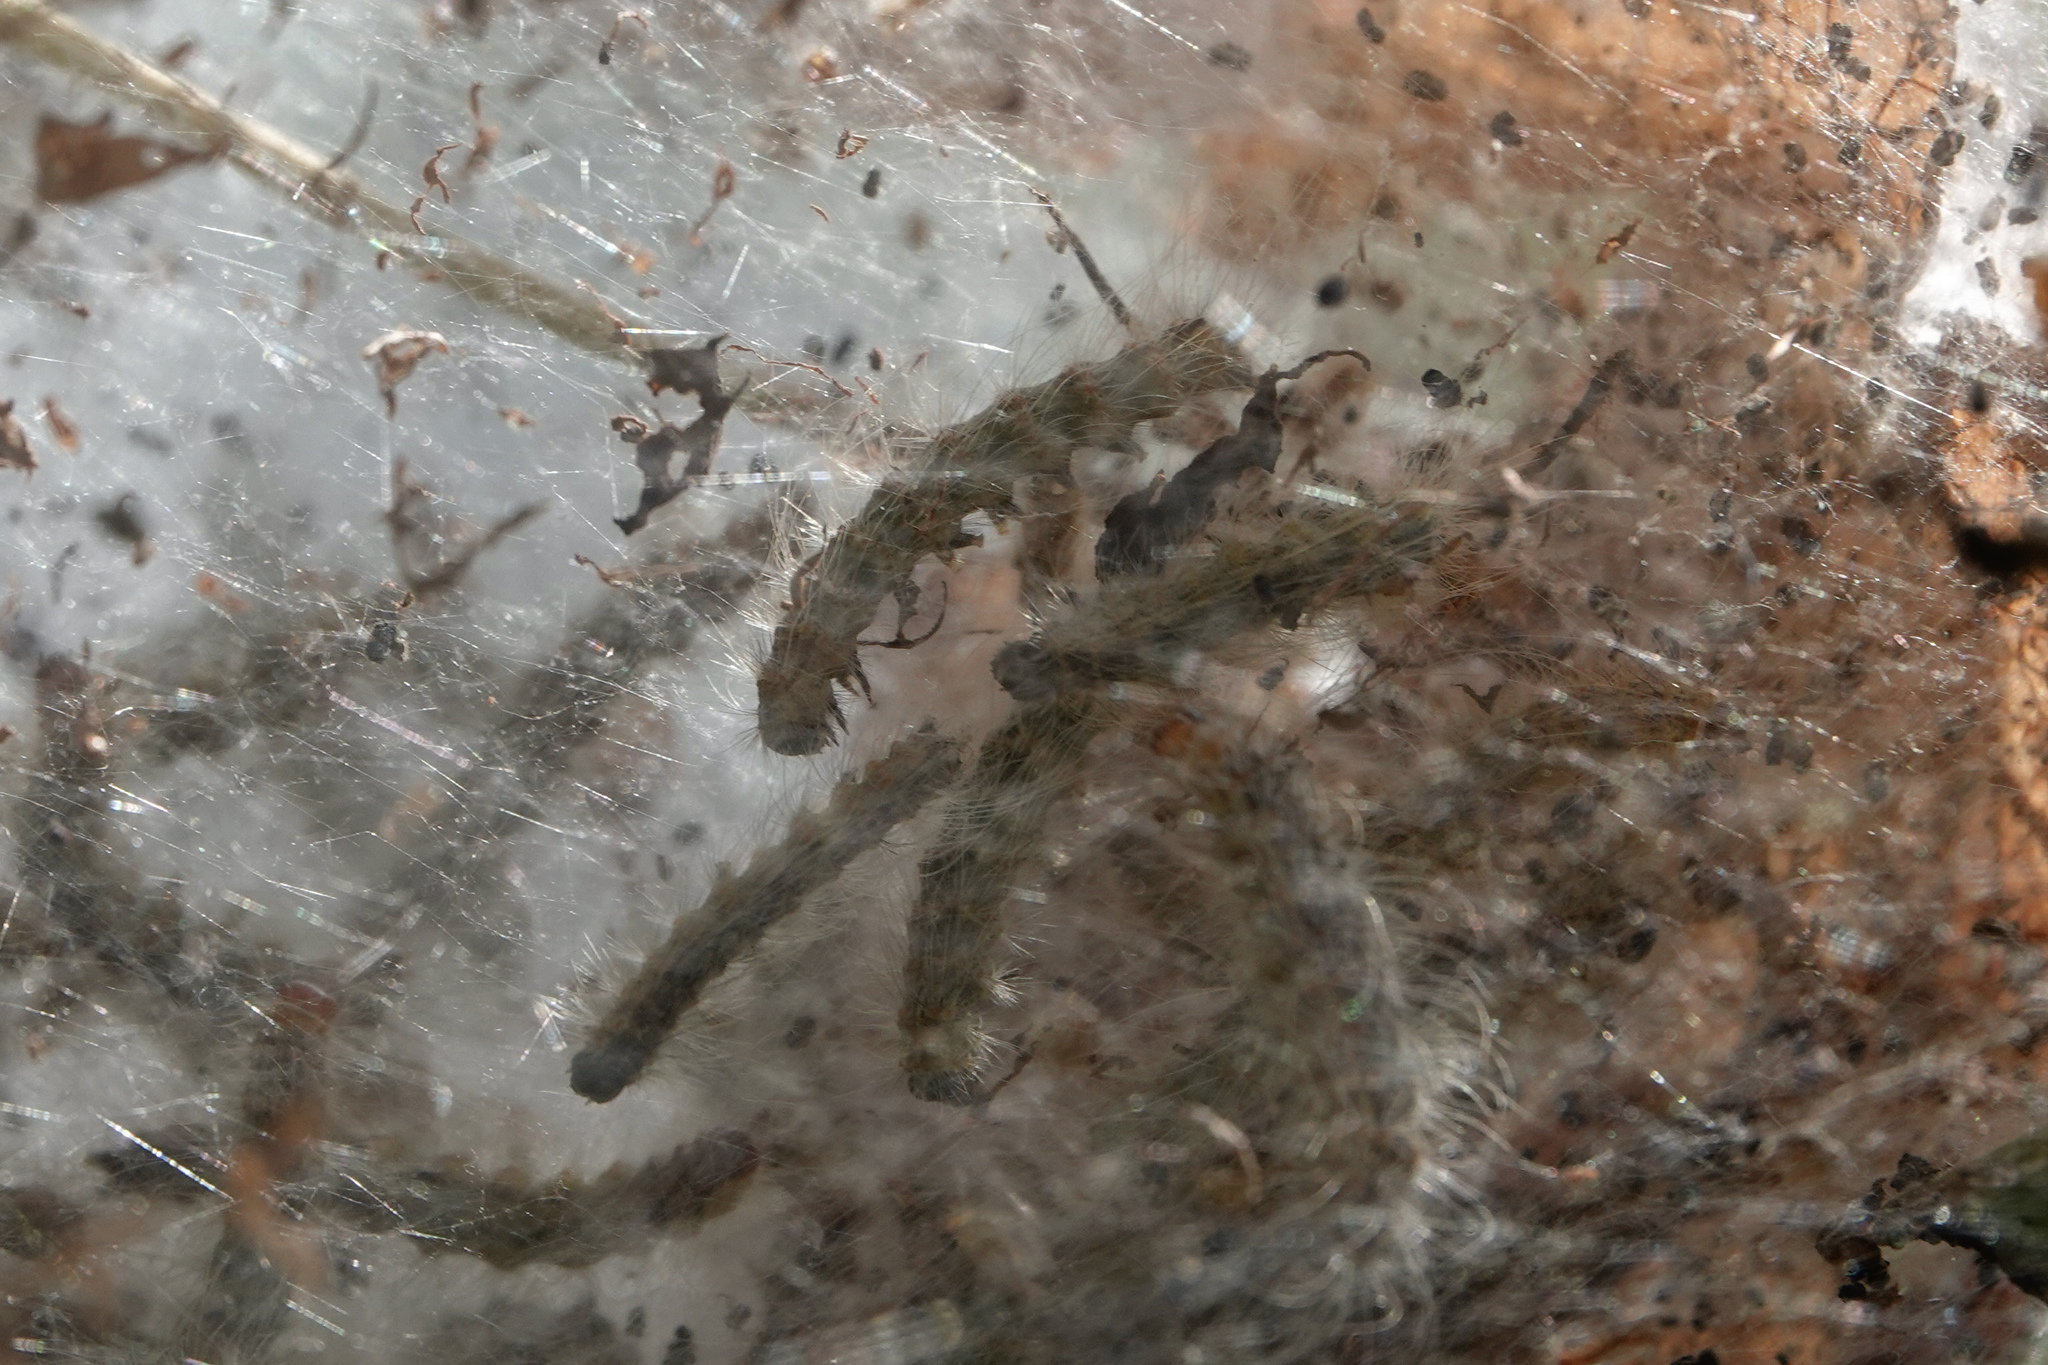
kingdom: Animalia
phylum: Arthropoda
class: Insecta
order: Lepidoptera
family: Erebidae
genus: Hyphantria
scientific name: Hyphantria cunea
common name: American white moth
